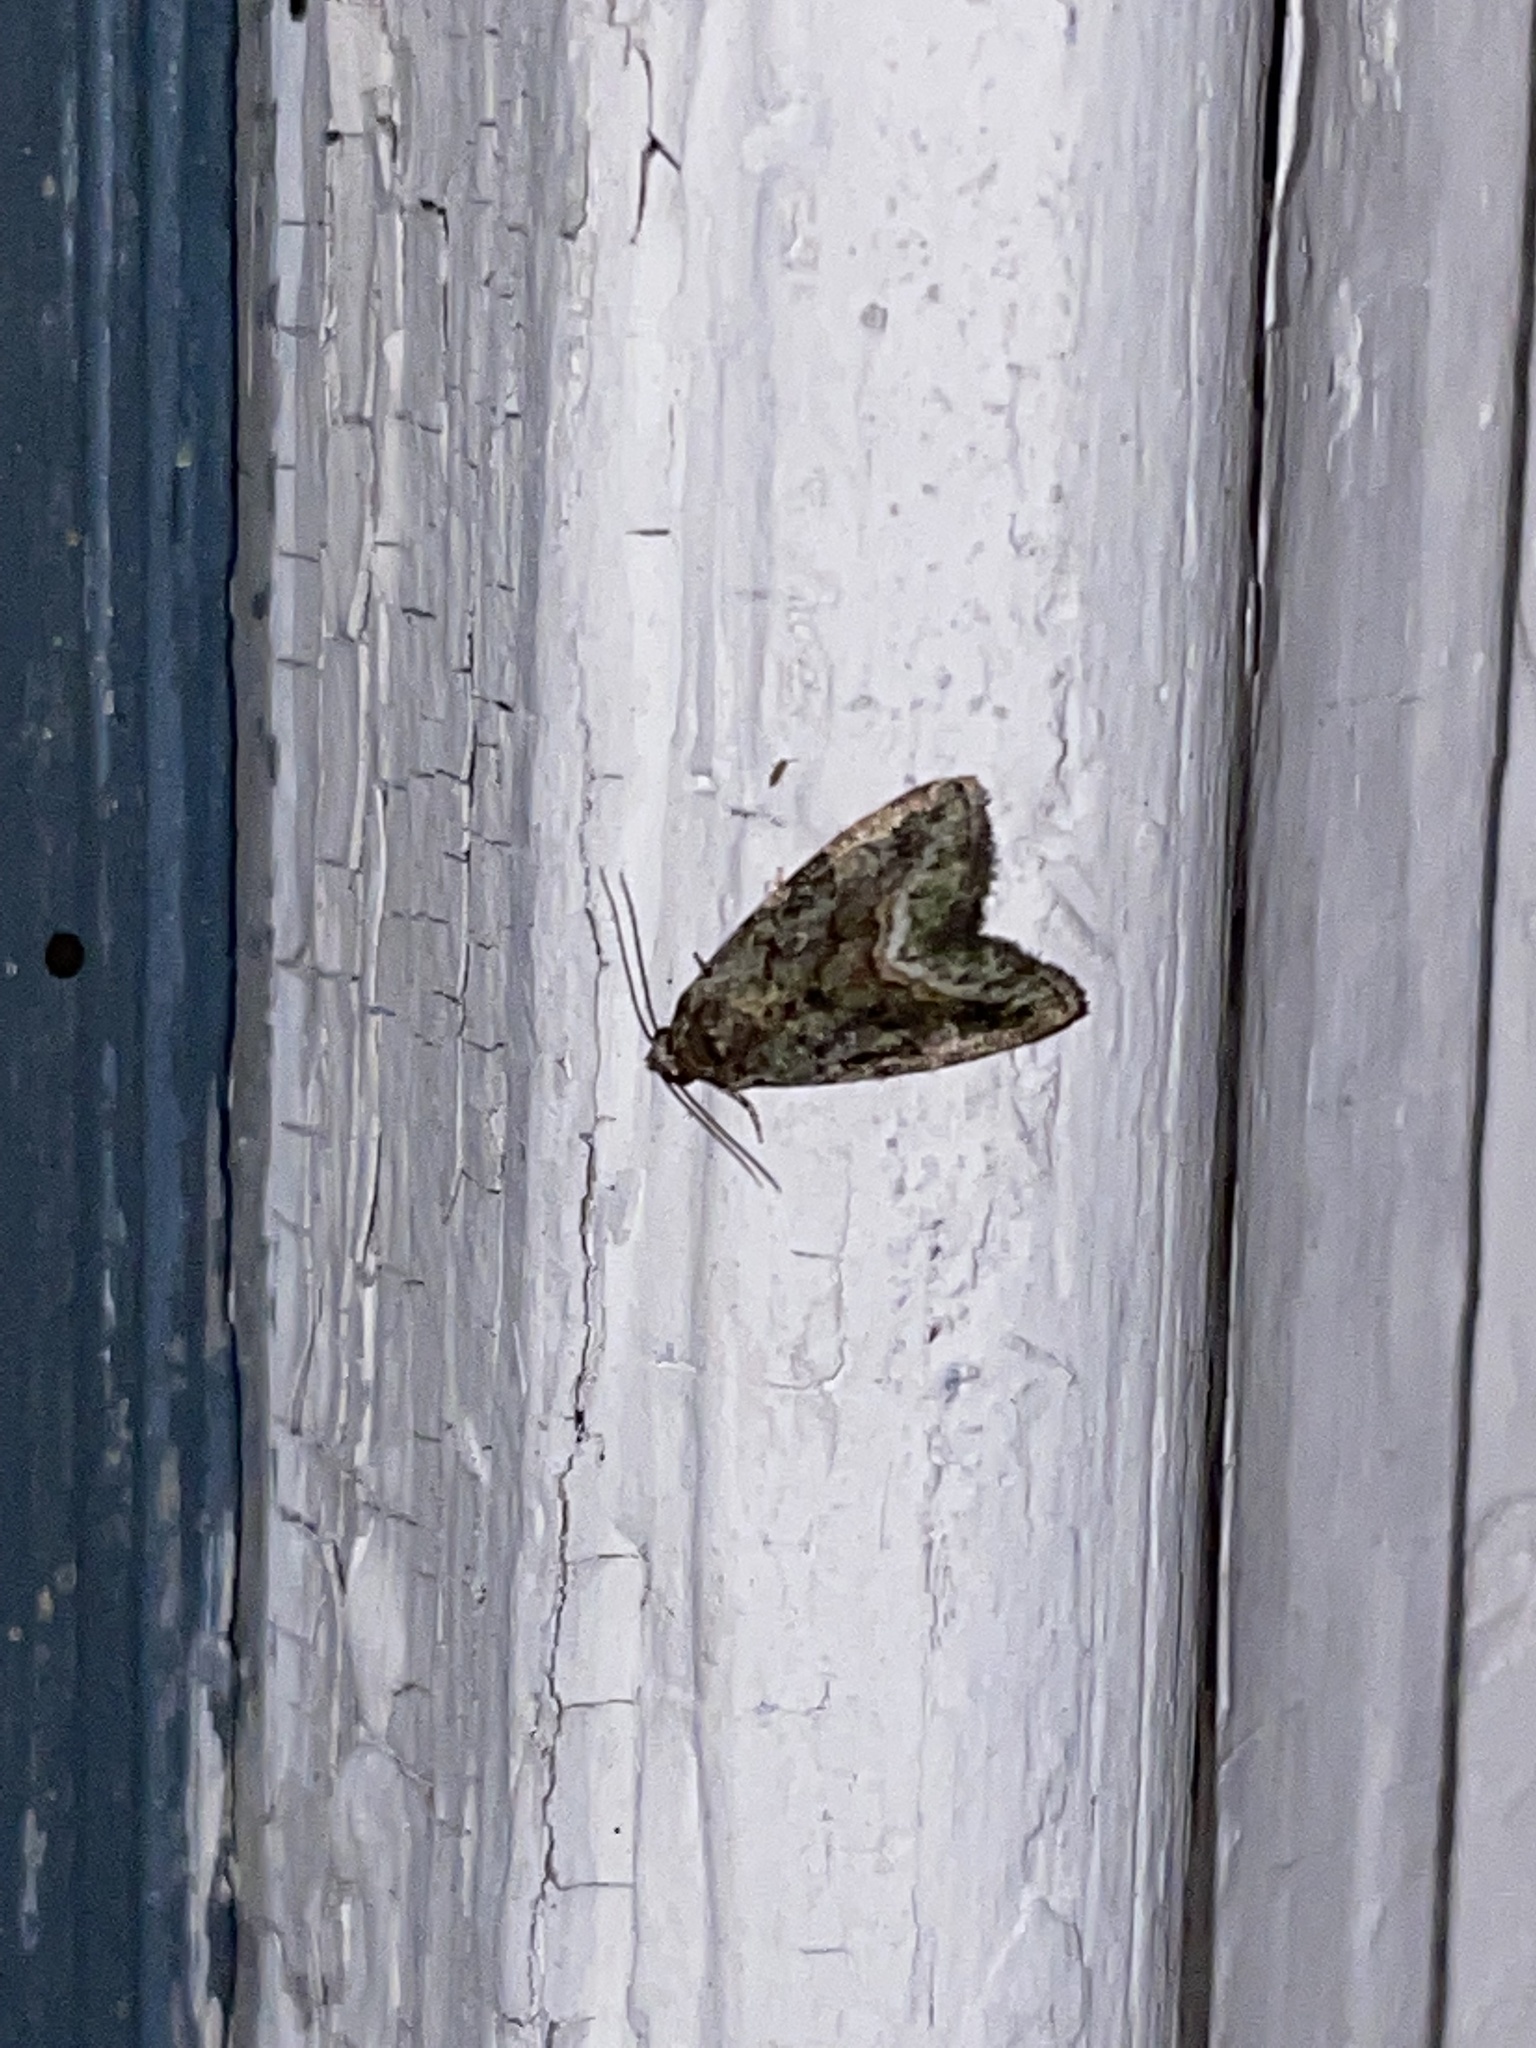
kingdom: Animalia
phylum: Arthropoda
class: Insecta
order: Lepidoptera
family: Noctuidae
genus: Lithacodia
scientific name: Lithacodia musta
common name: Small mossy glyph
